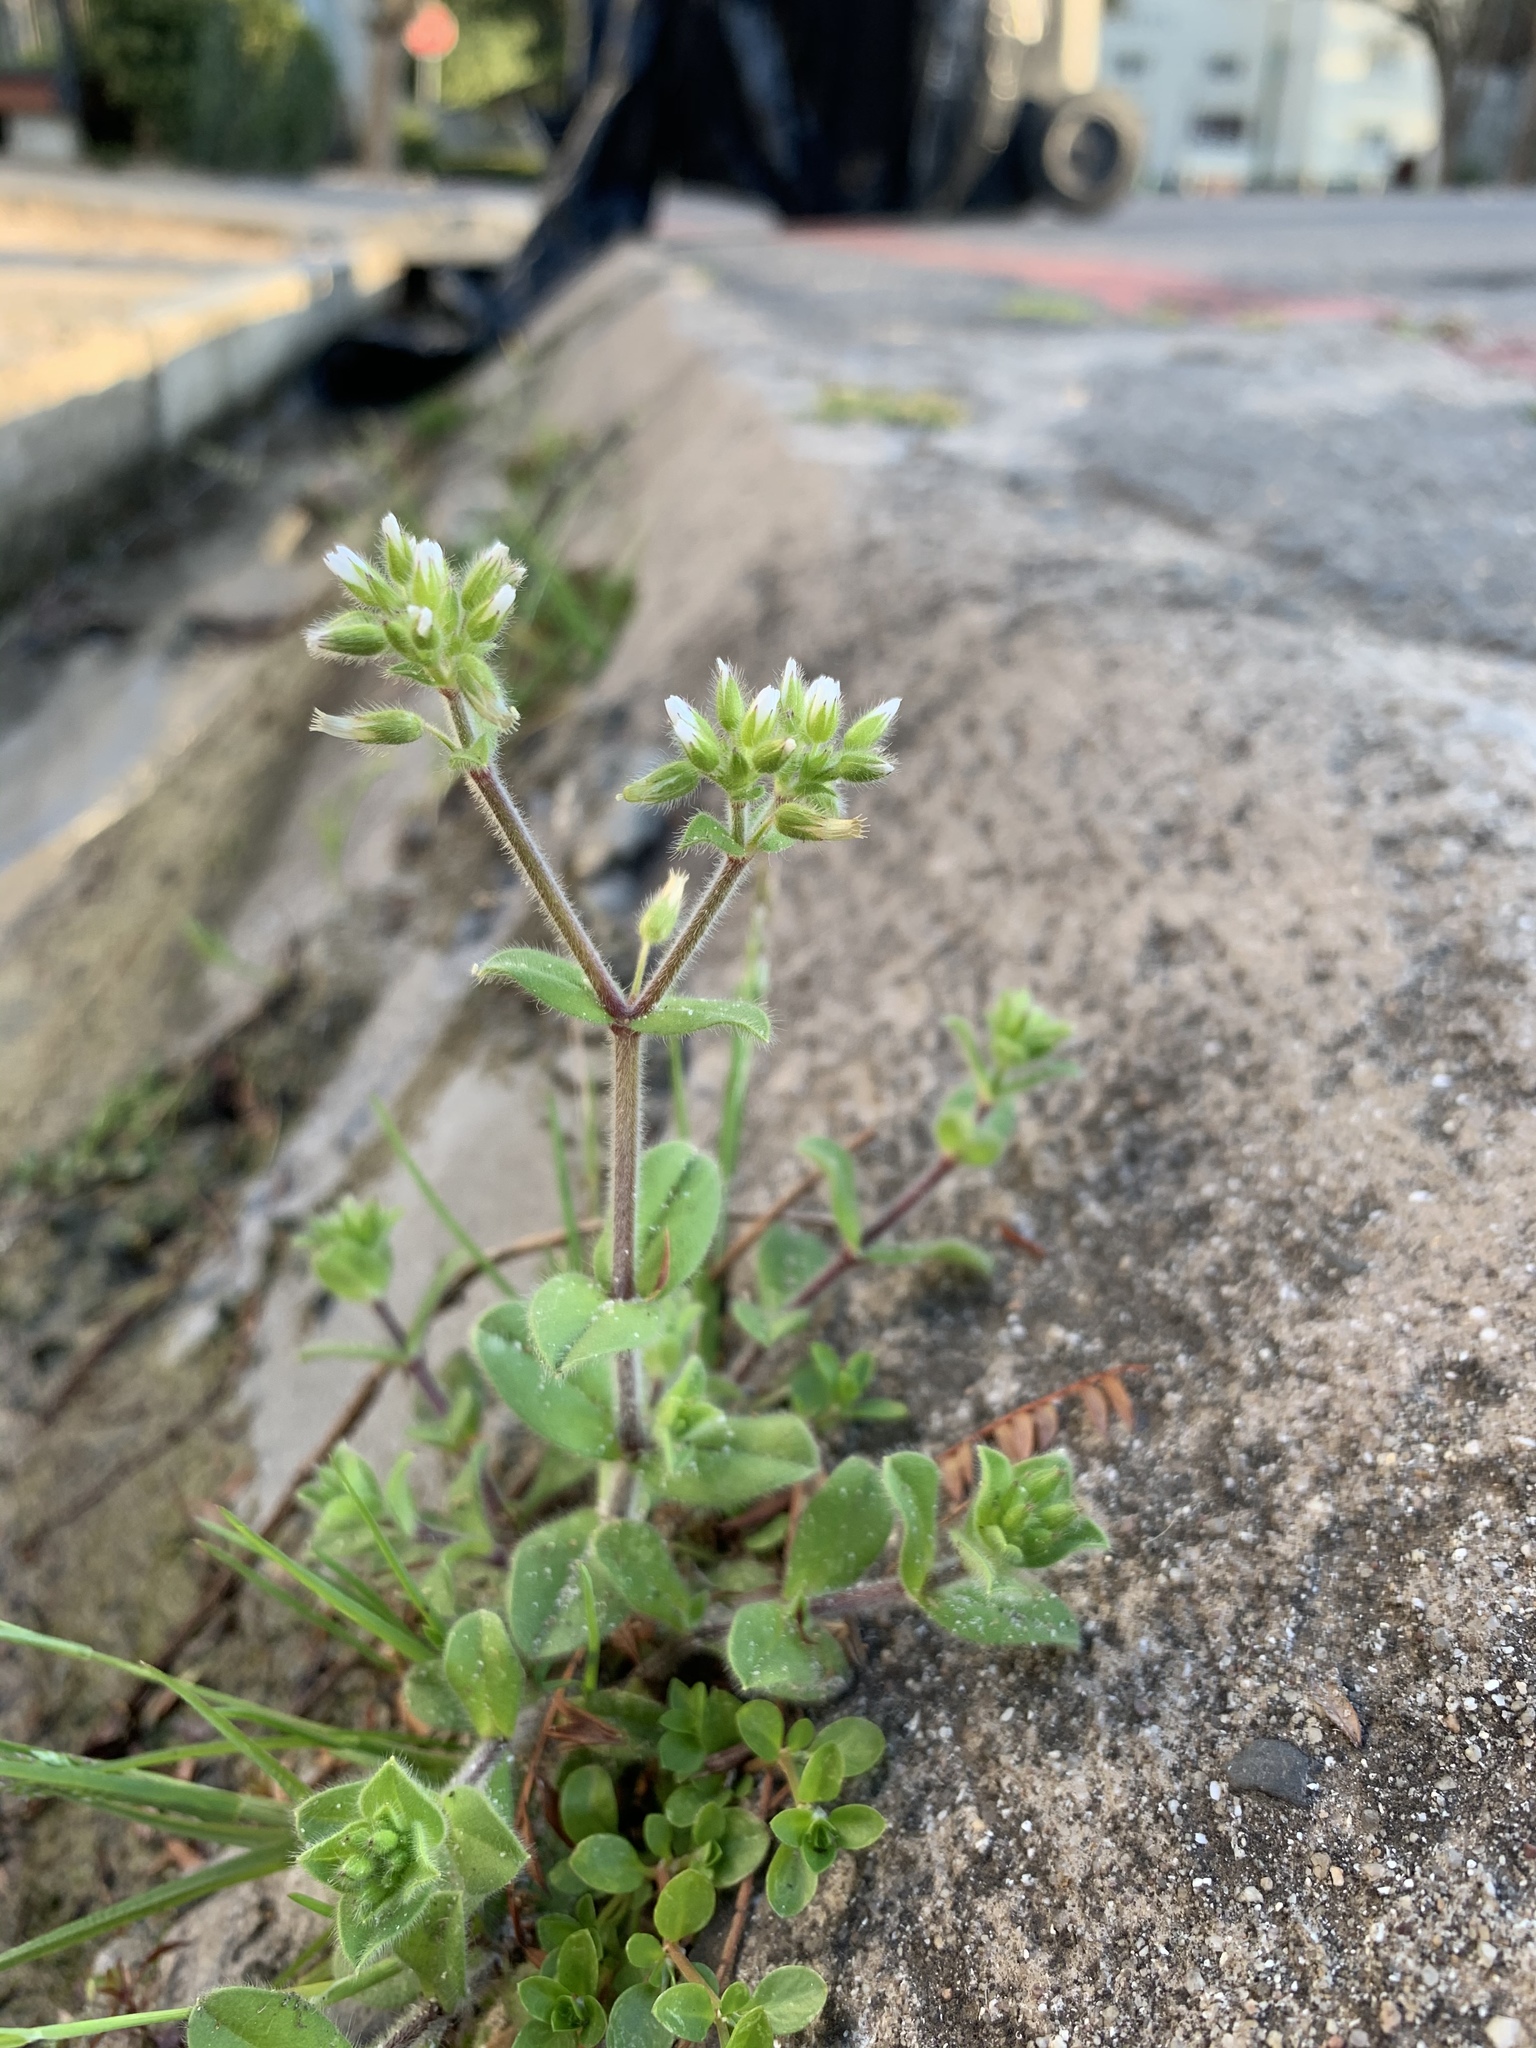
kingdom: Plantae
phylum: Tracheophyta
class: Magnoliopsida
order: Caryophyllales
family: Caryophyllaceae
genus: Cerastium
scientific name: Cerastium glomeratum
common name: Sticky chickweed
